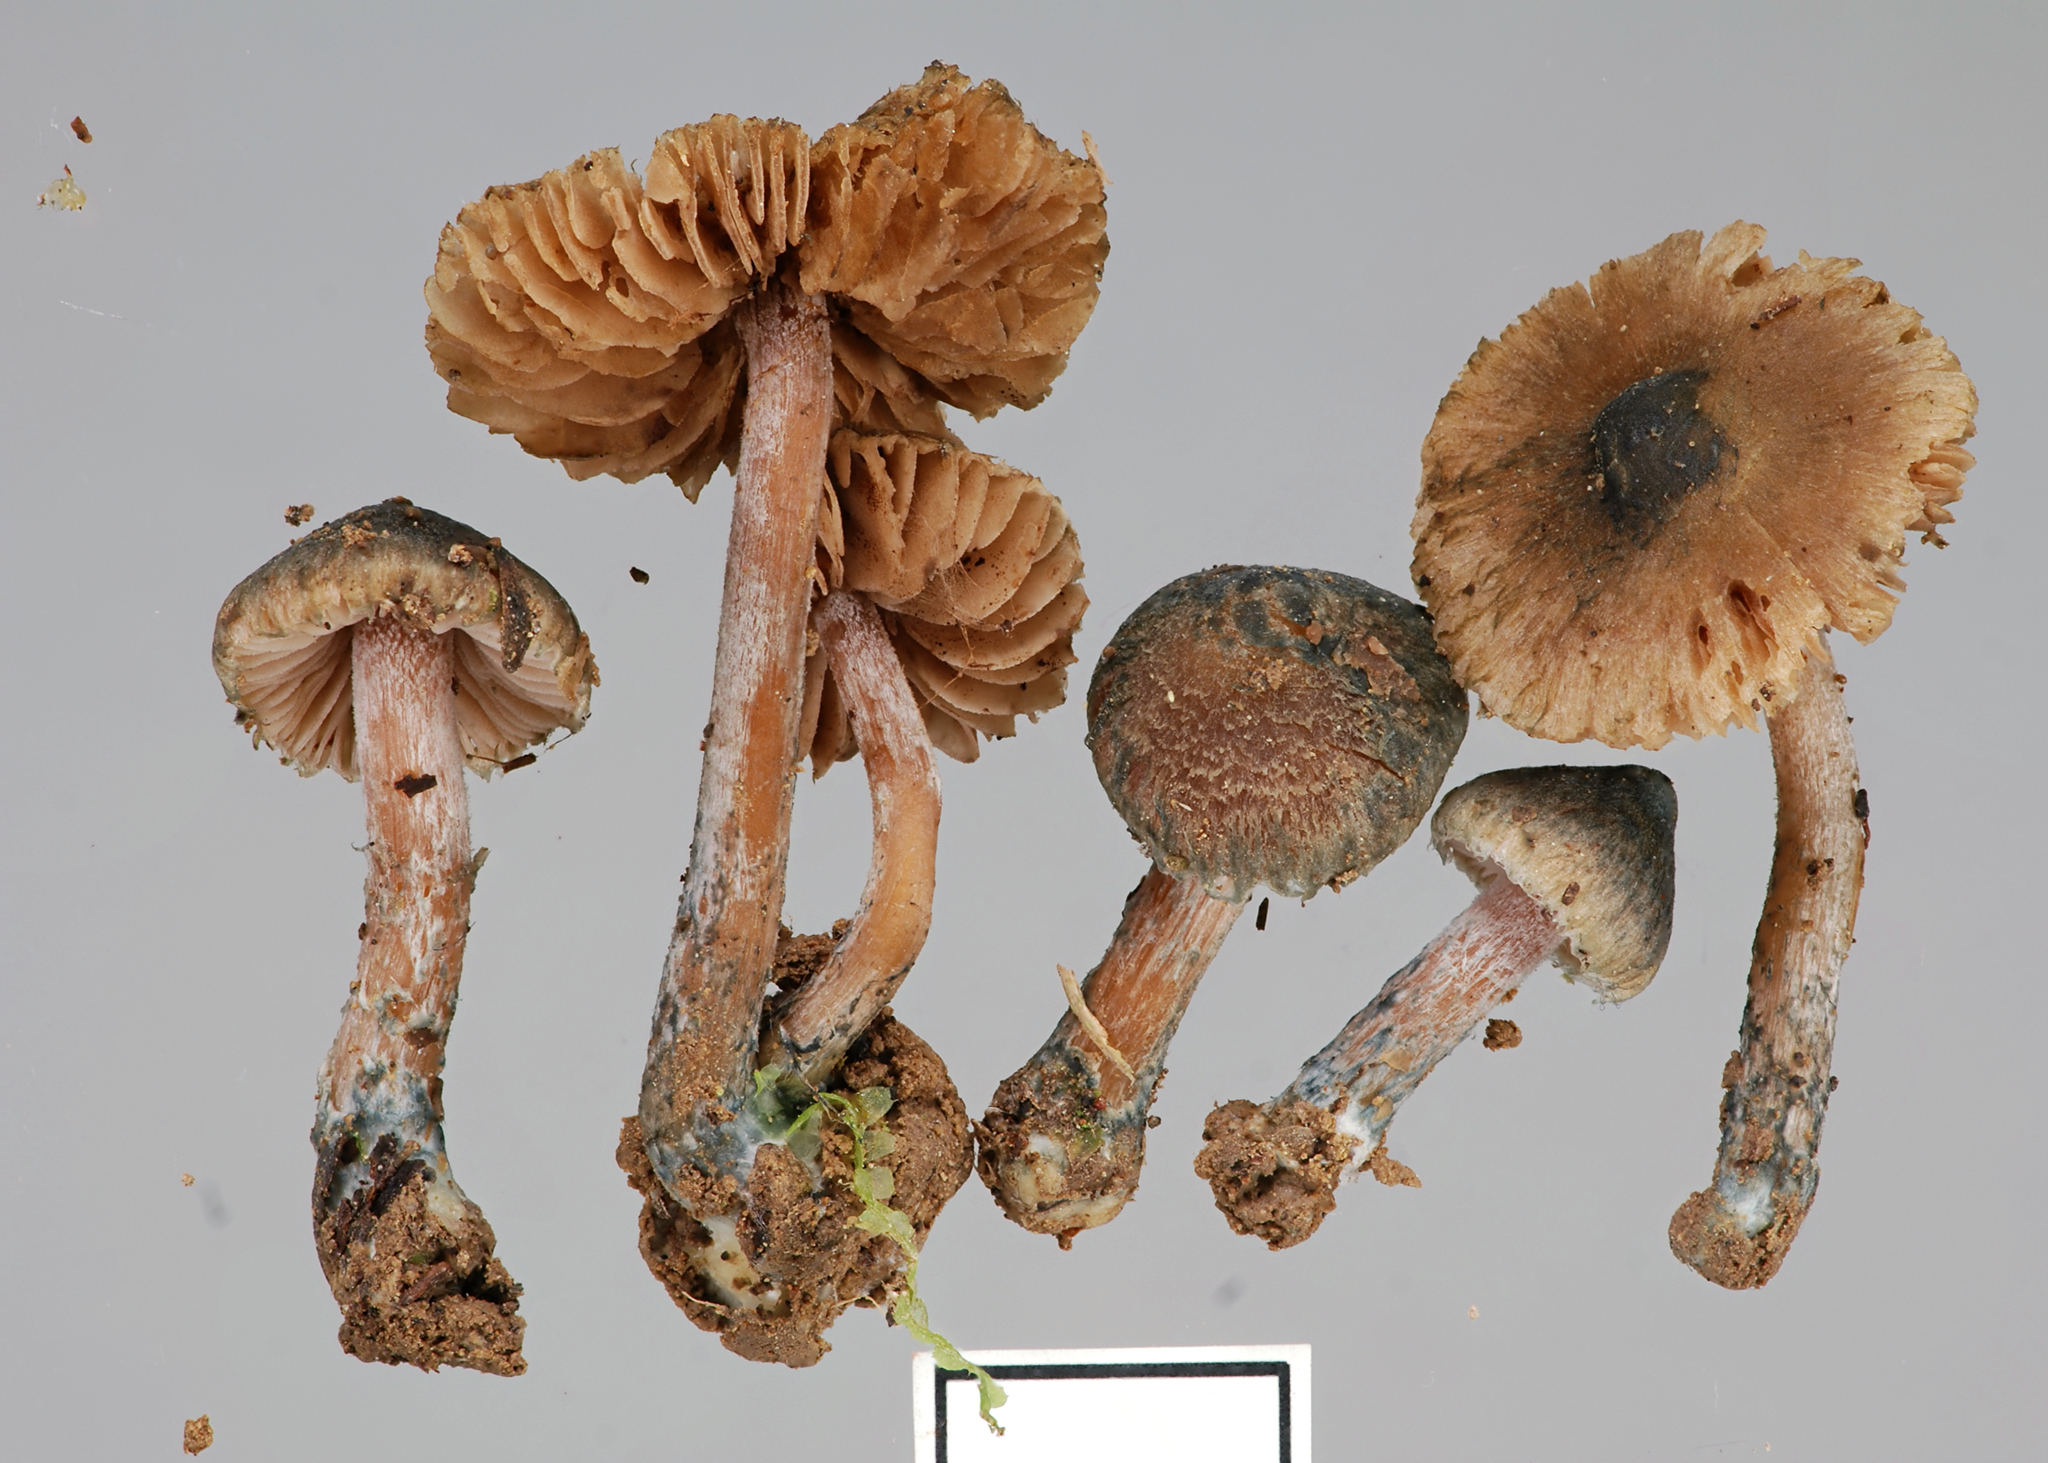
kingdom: Fungi
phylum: Basidiomycota
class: Agaricomycetes
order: Agaricales
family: Inocybaceae
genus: Inocybe
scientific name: Inocybe caerulata
